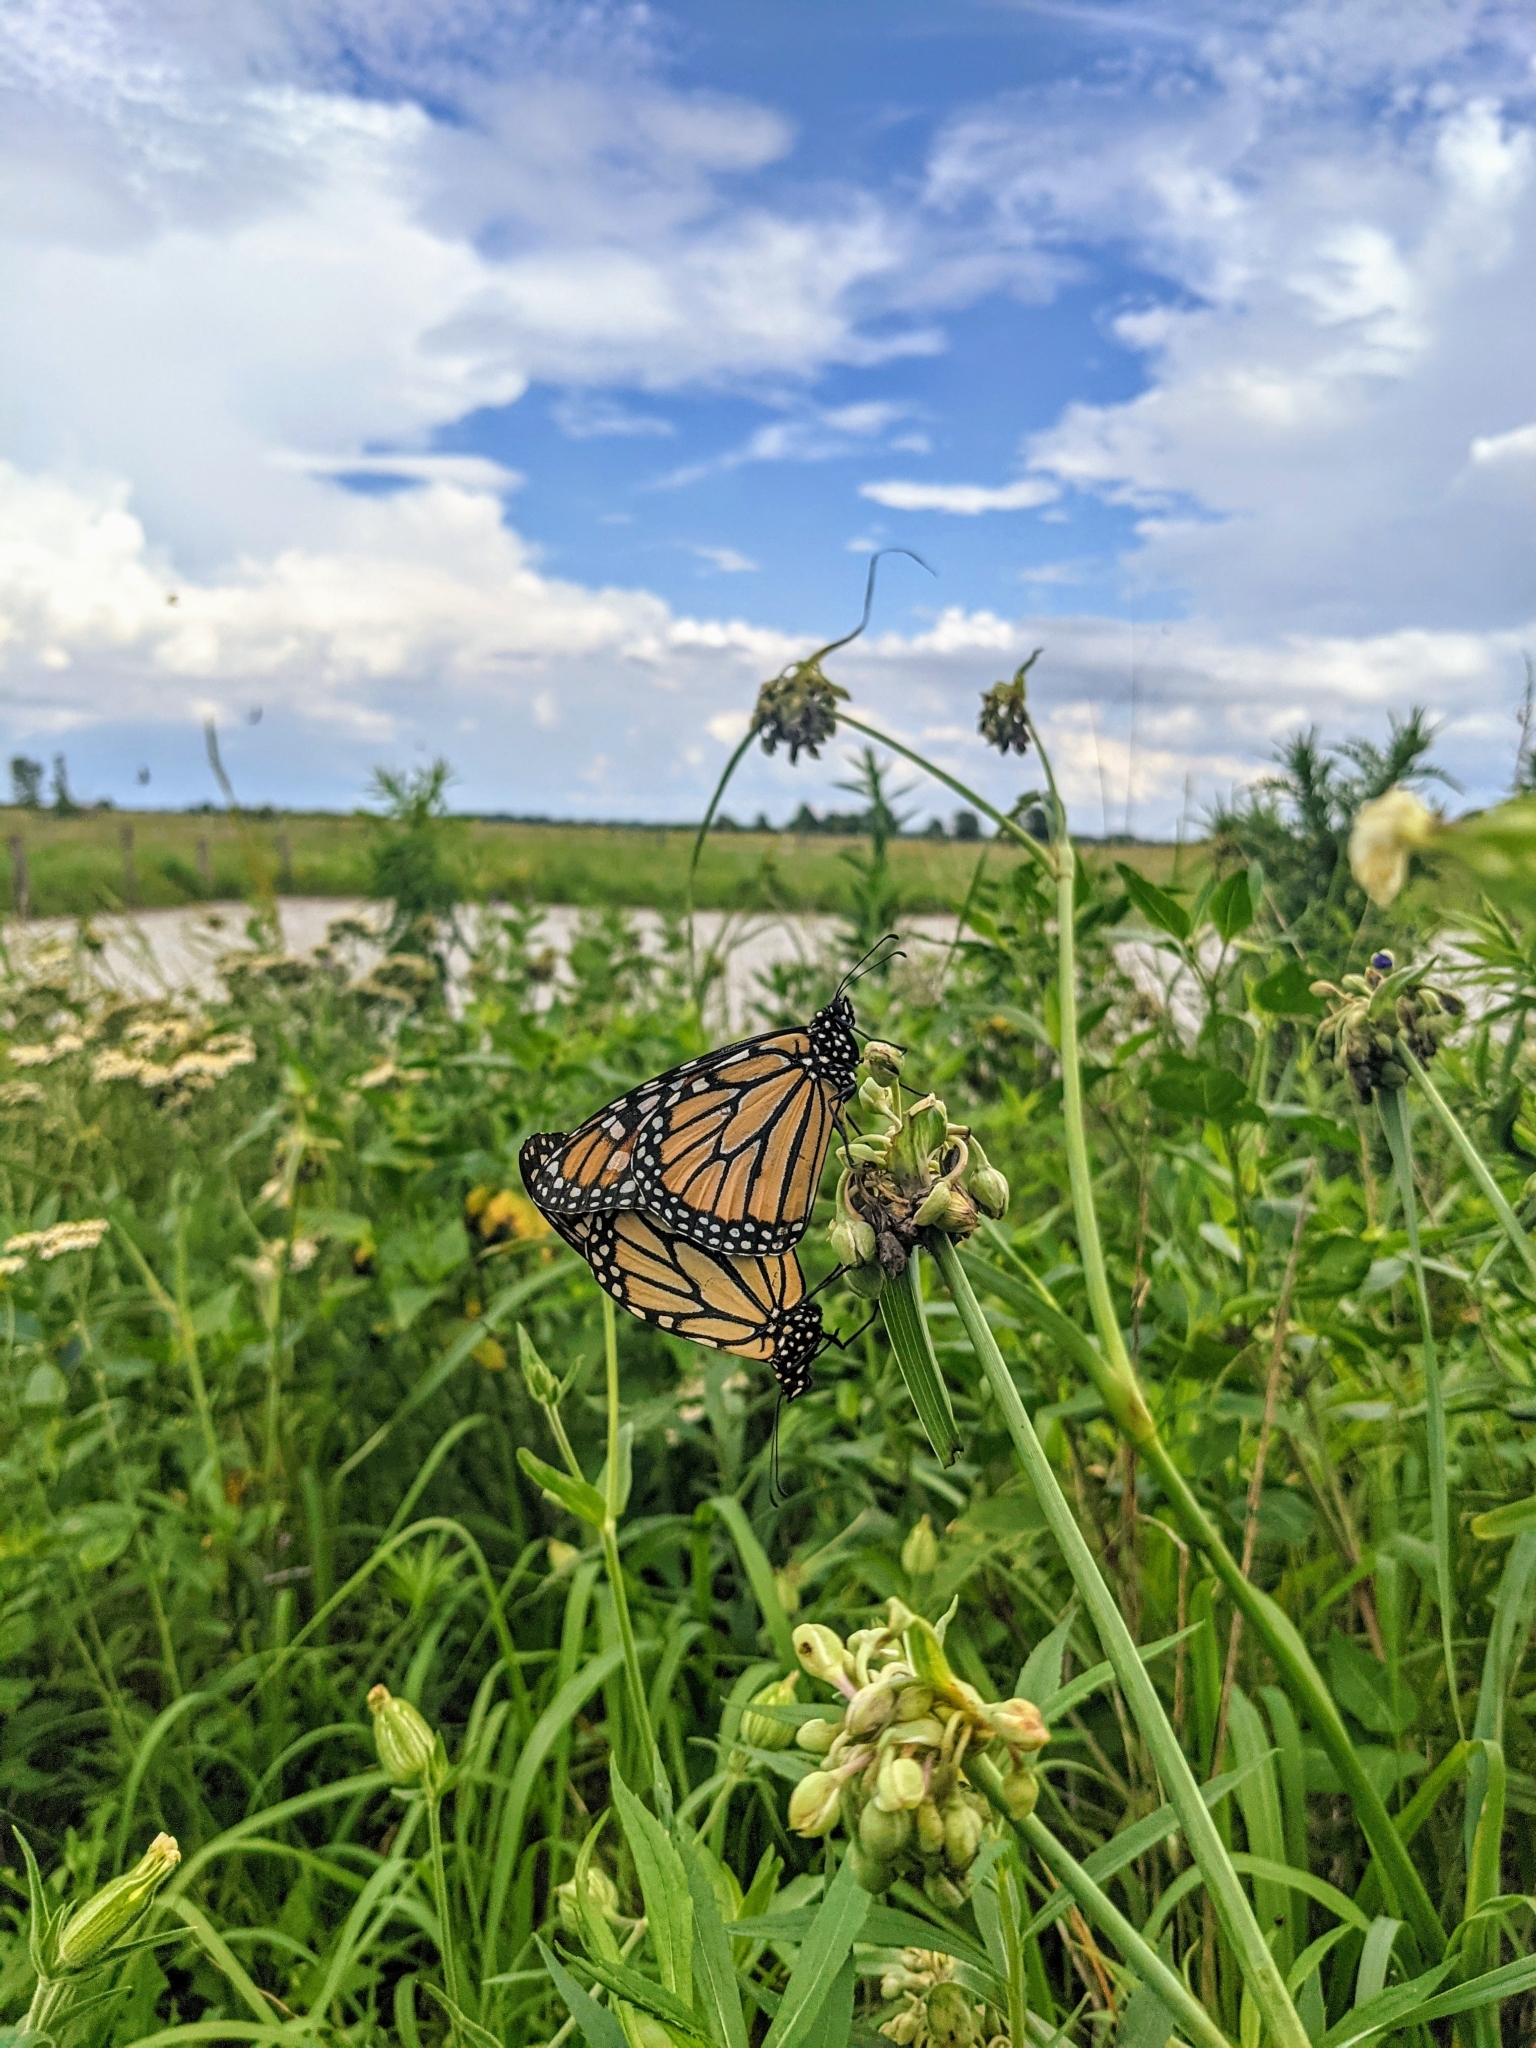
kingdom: Animalia
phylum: Arthropoda
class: Insecta
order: Lepidoptera
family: Nymphalidae
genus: Danaus
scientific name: Danaus plexippus
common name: Monarch
